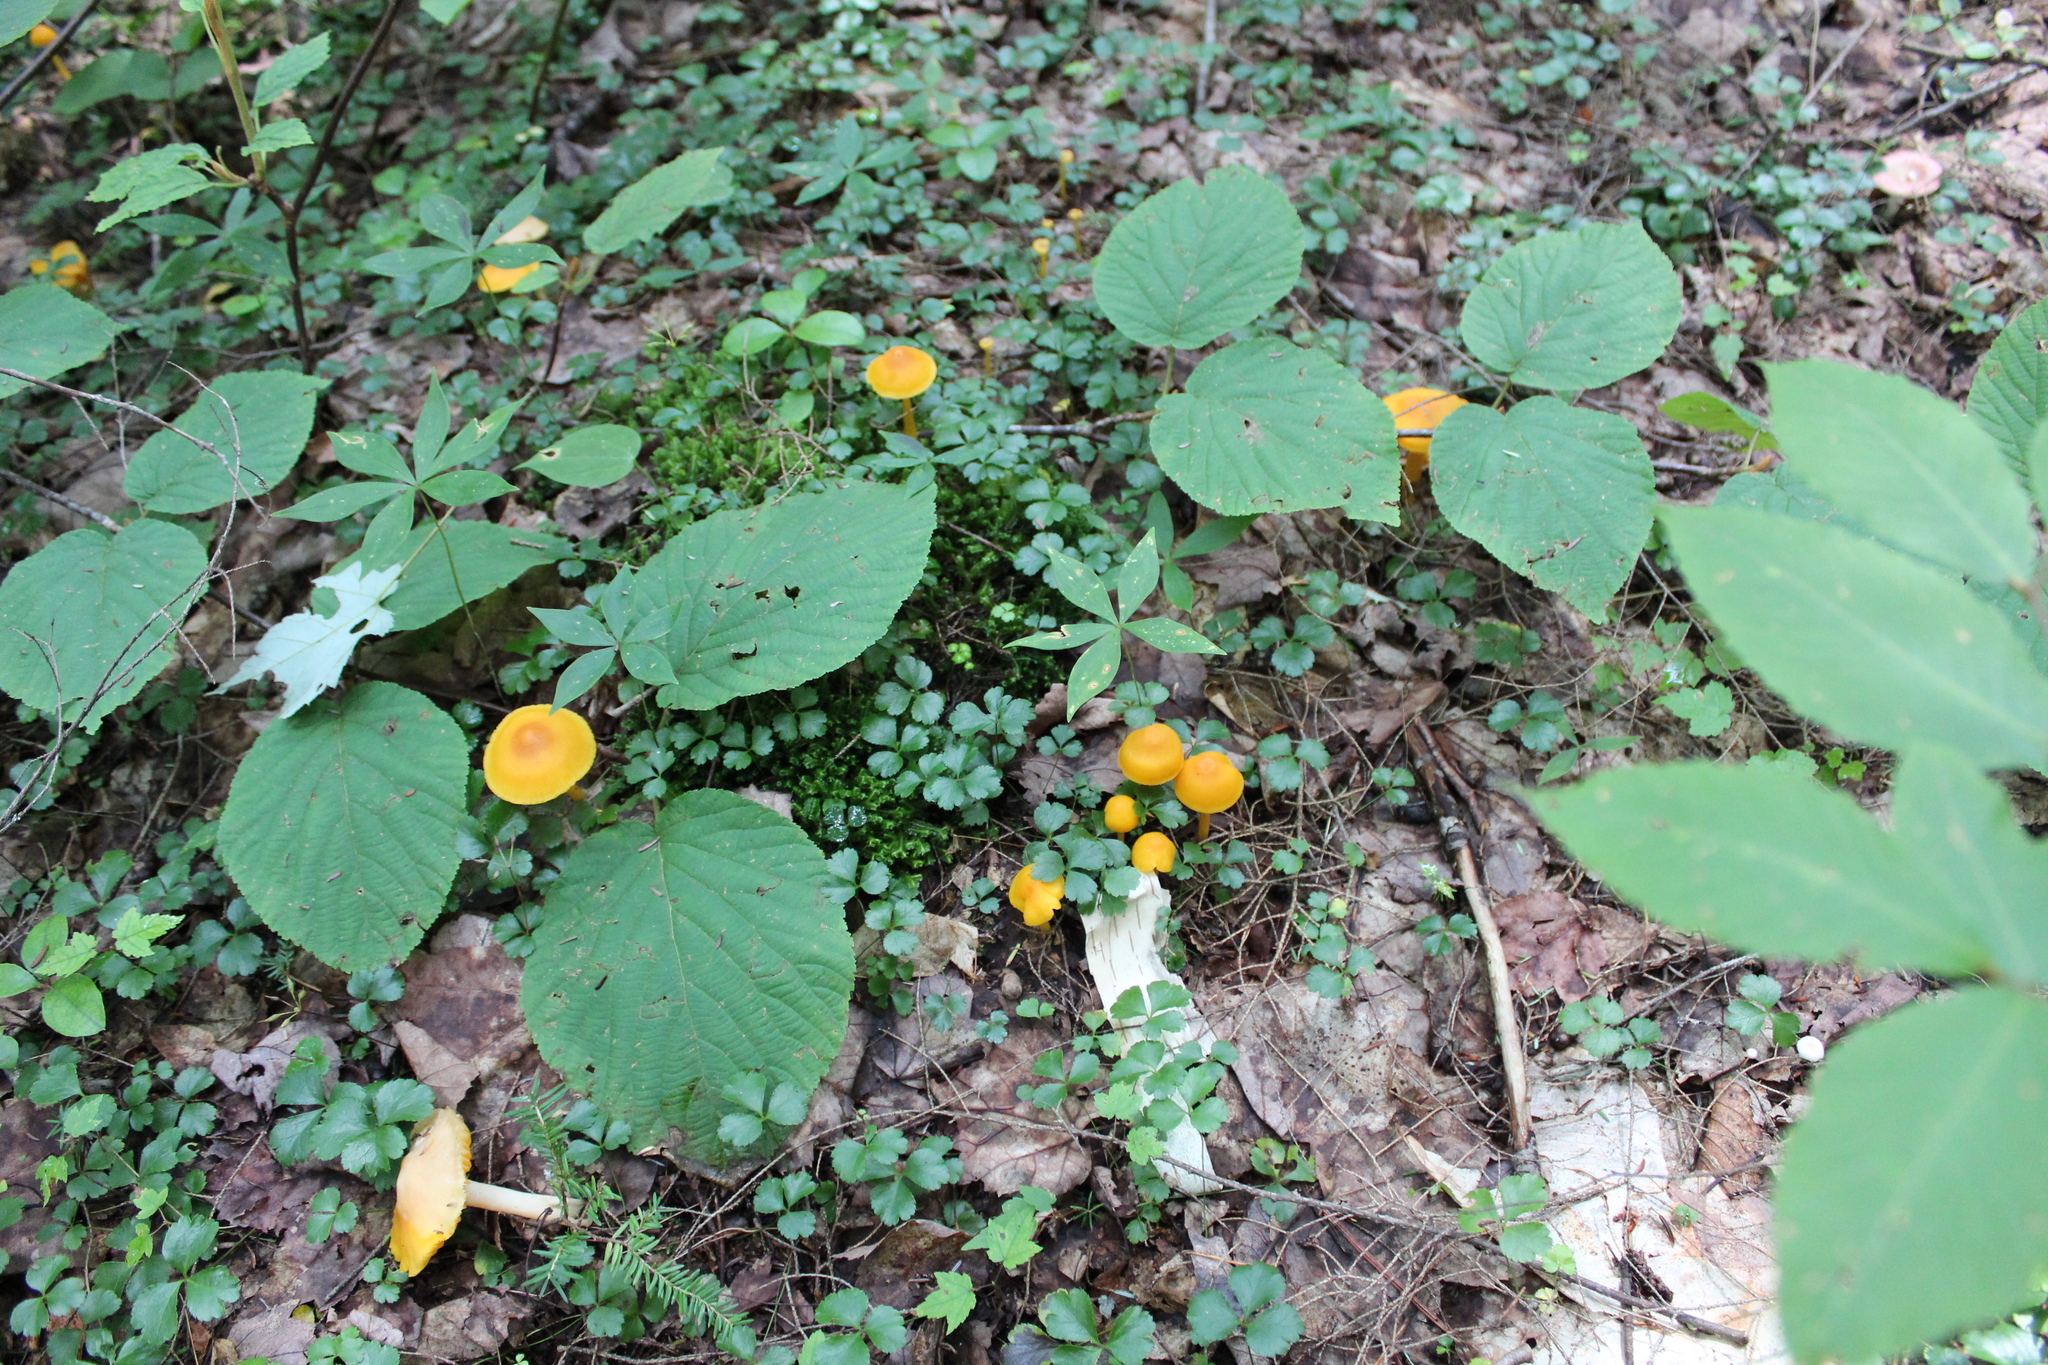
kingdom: Fungi
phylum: Basidiomycota
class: Agaricomycetes
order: Agaricales
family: Hygrophoraceae
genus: Humidicutis
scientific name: Humidicutis marginata
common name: Orange gilled waxcap
